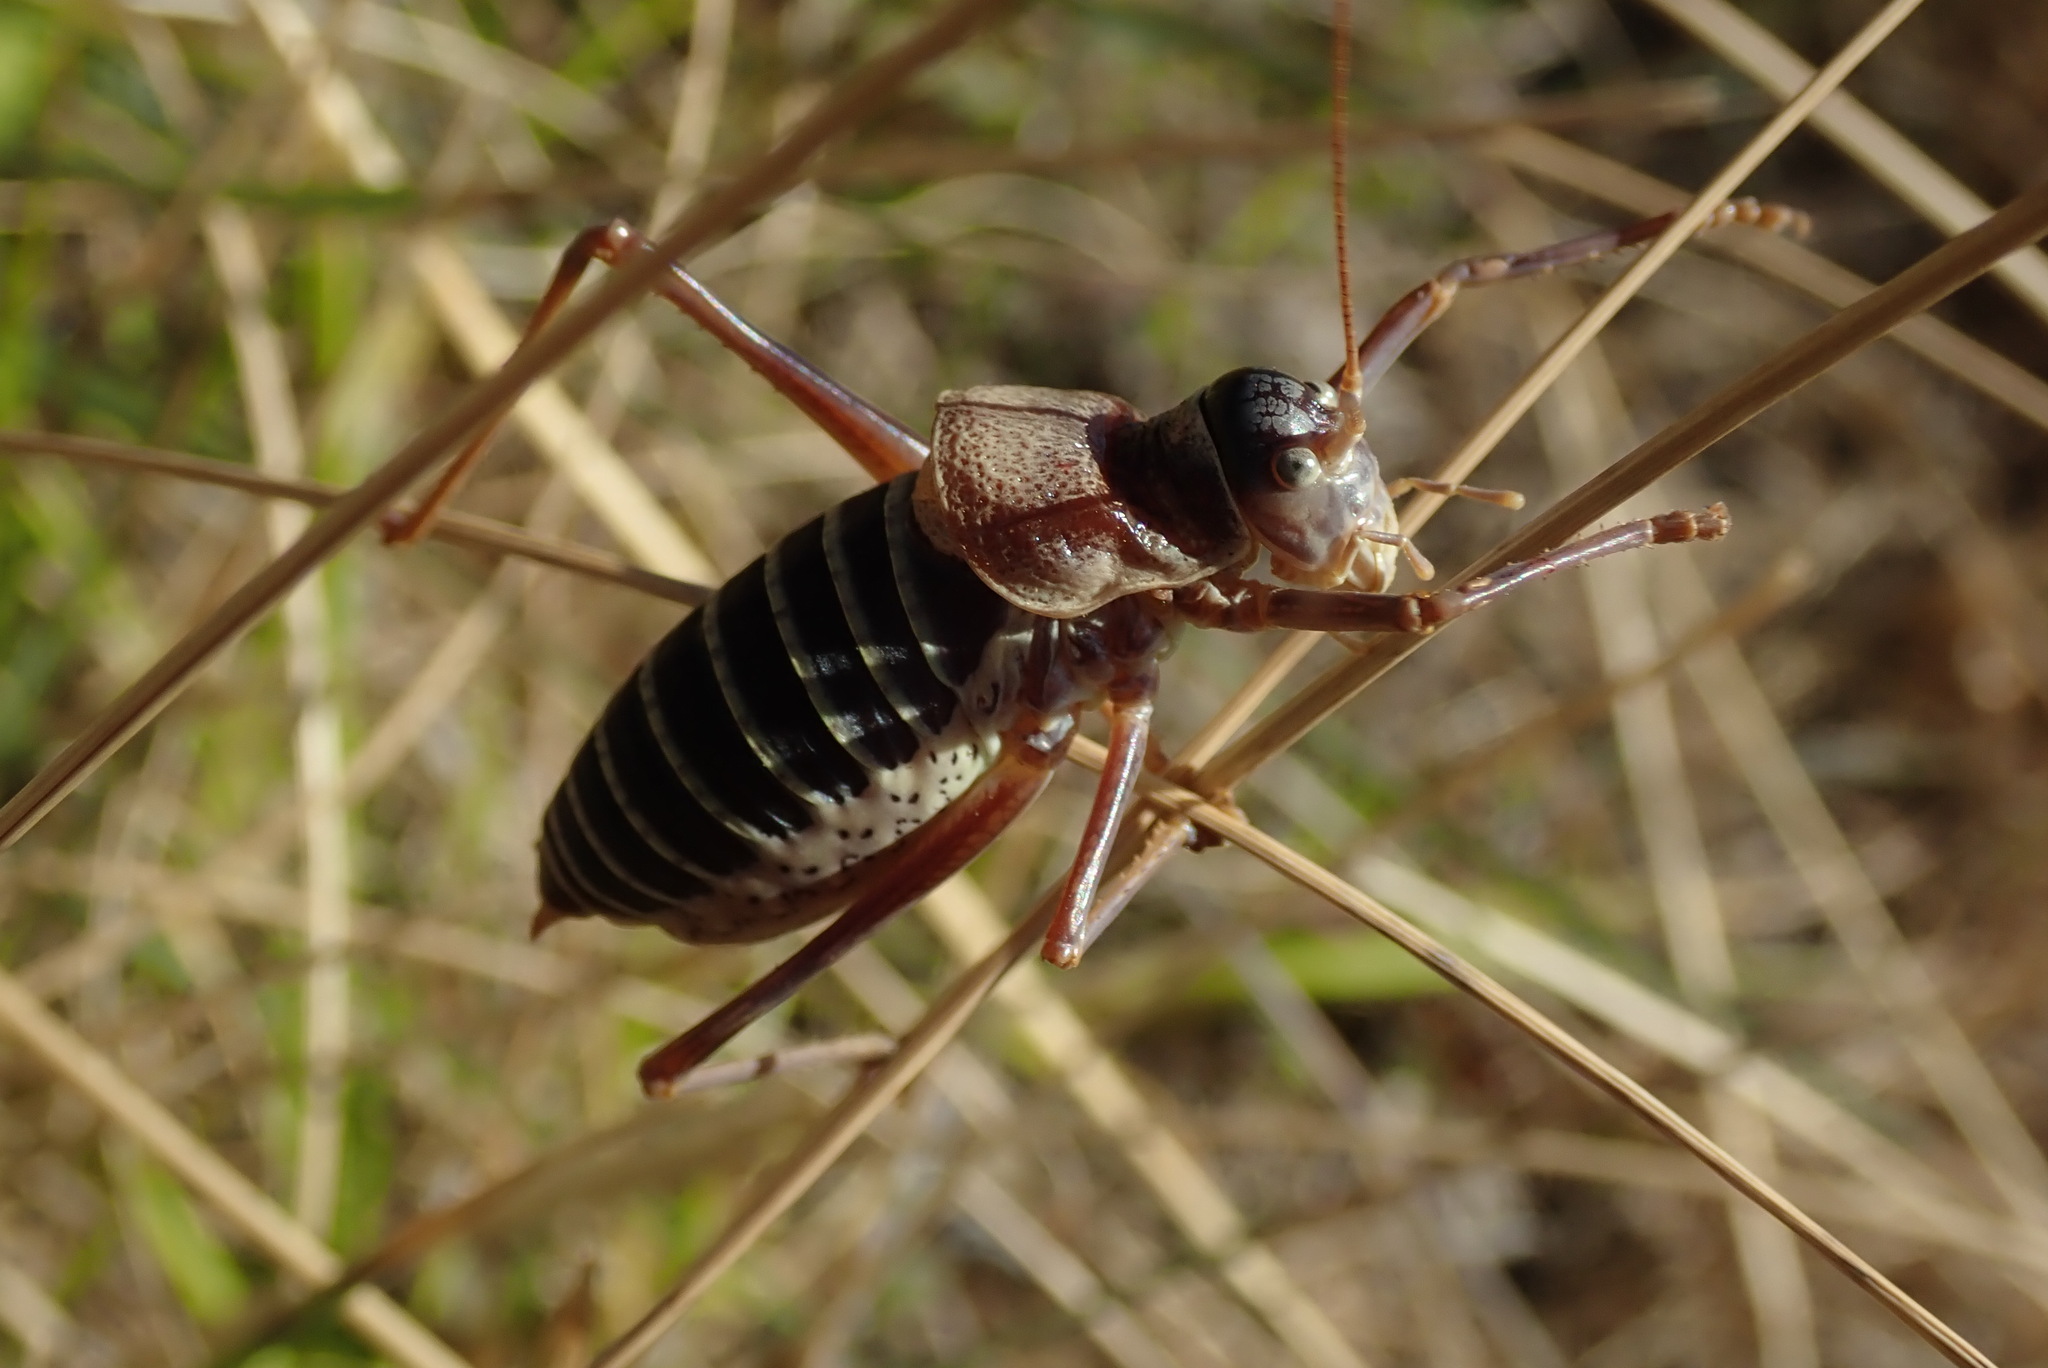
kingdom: Animalia
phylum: Arthropoda
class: Insecta
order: Orthoptera
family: Tettigoniidae
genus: Ephippiger
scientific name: Ephippiger diurnus
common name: Western saddle bush-cricket
